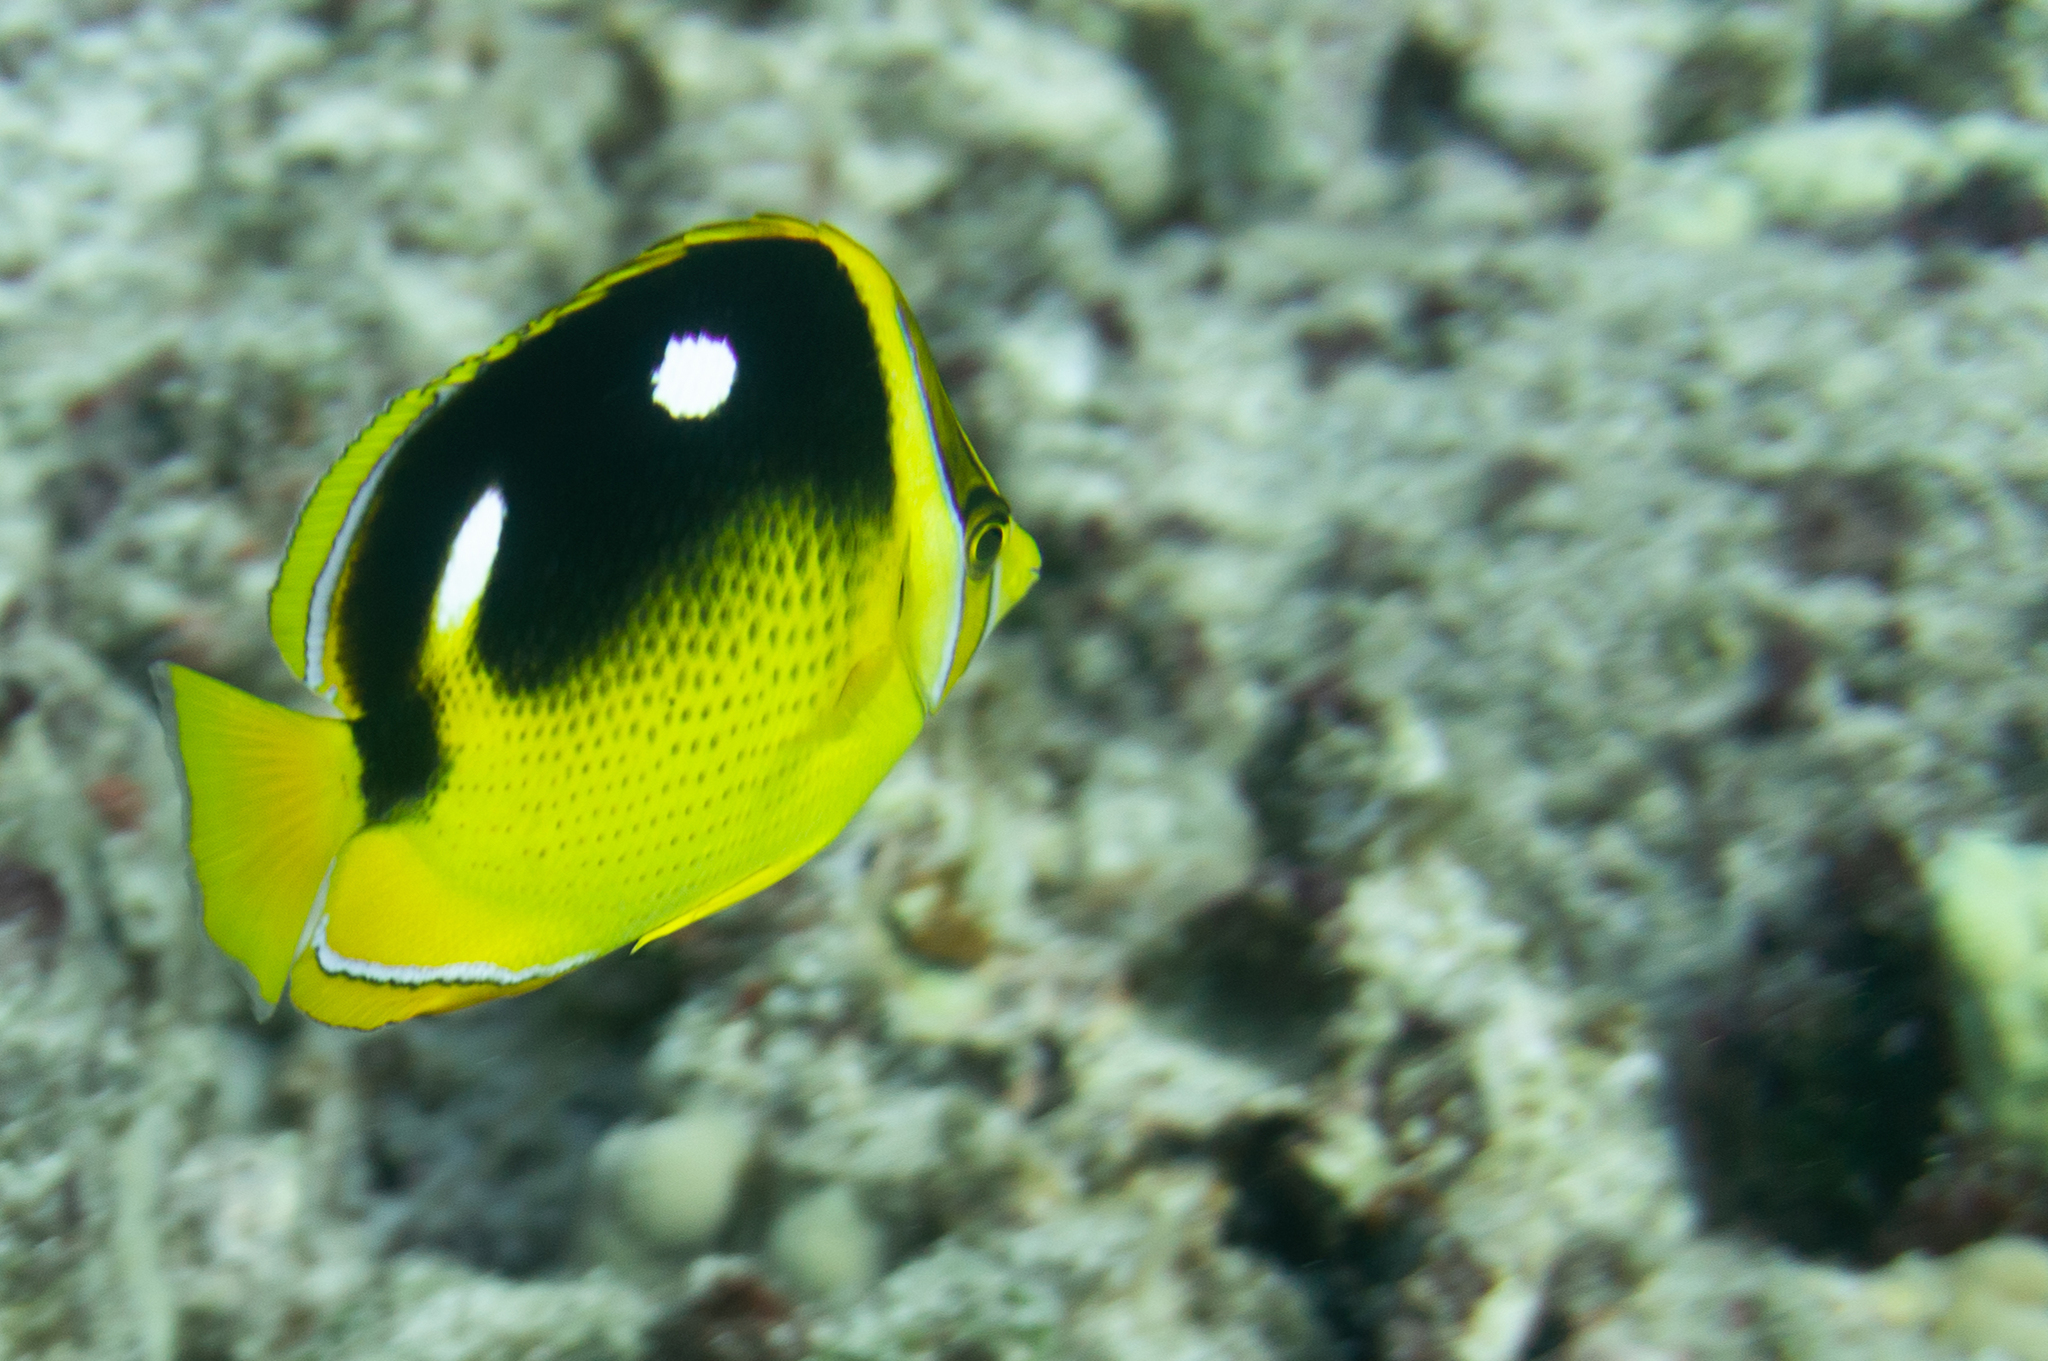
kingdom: Animalia
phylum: Chordata
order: Perciformes
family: Chaetodontidae
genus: Chaetodon
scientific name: Chaetodon quadrimaculatus
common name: Fourspot butterflyfish
